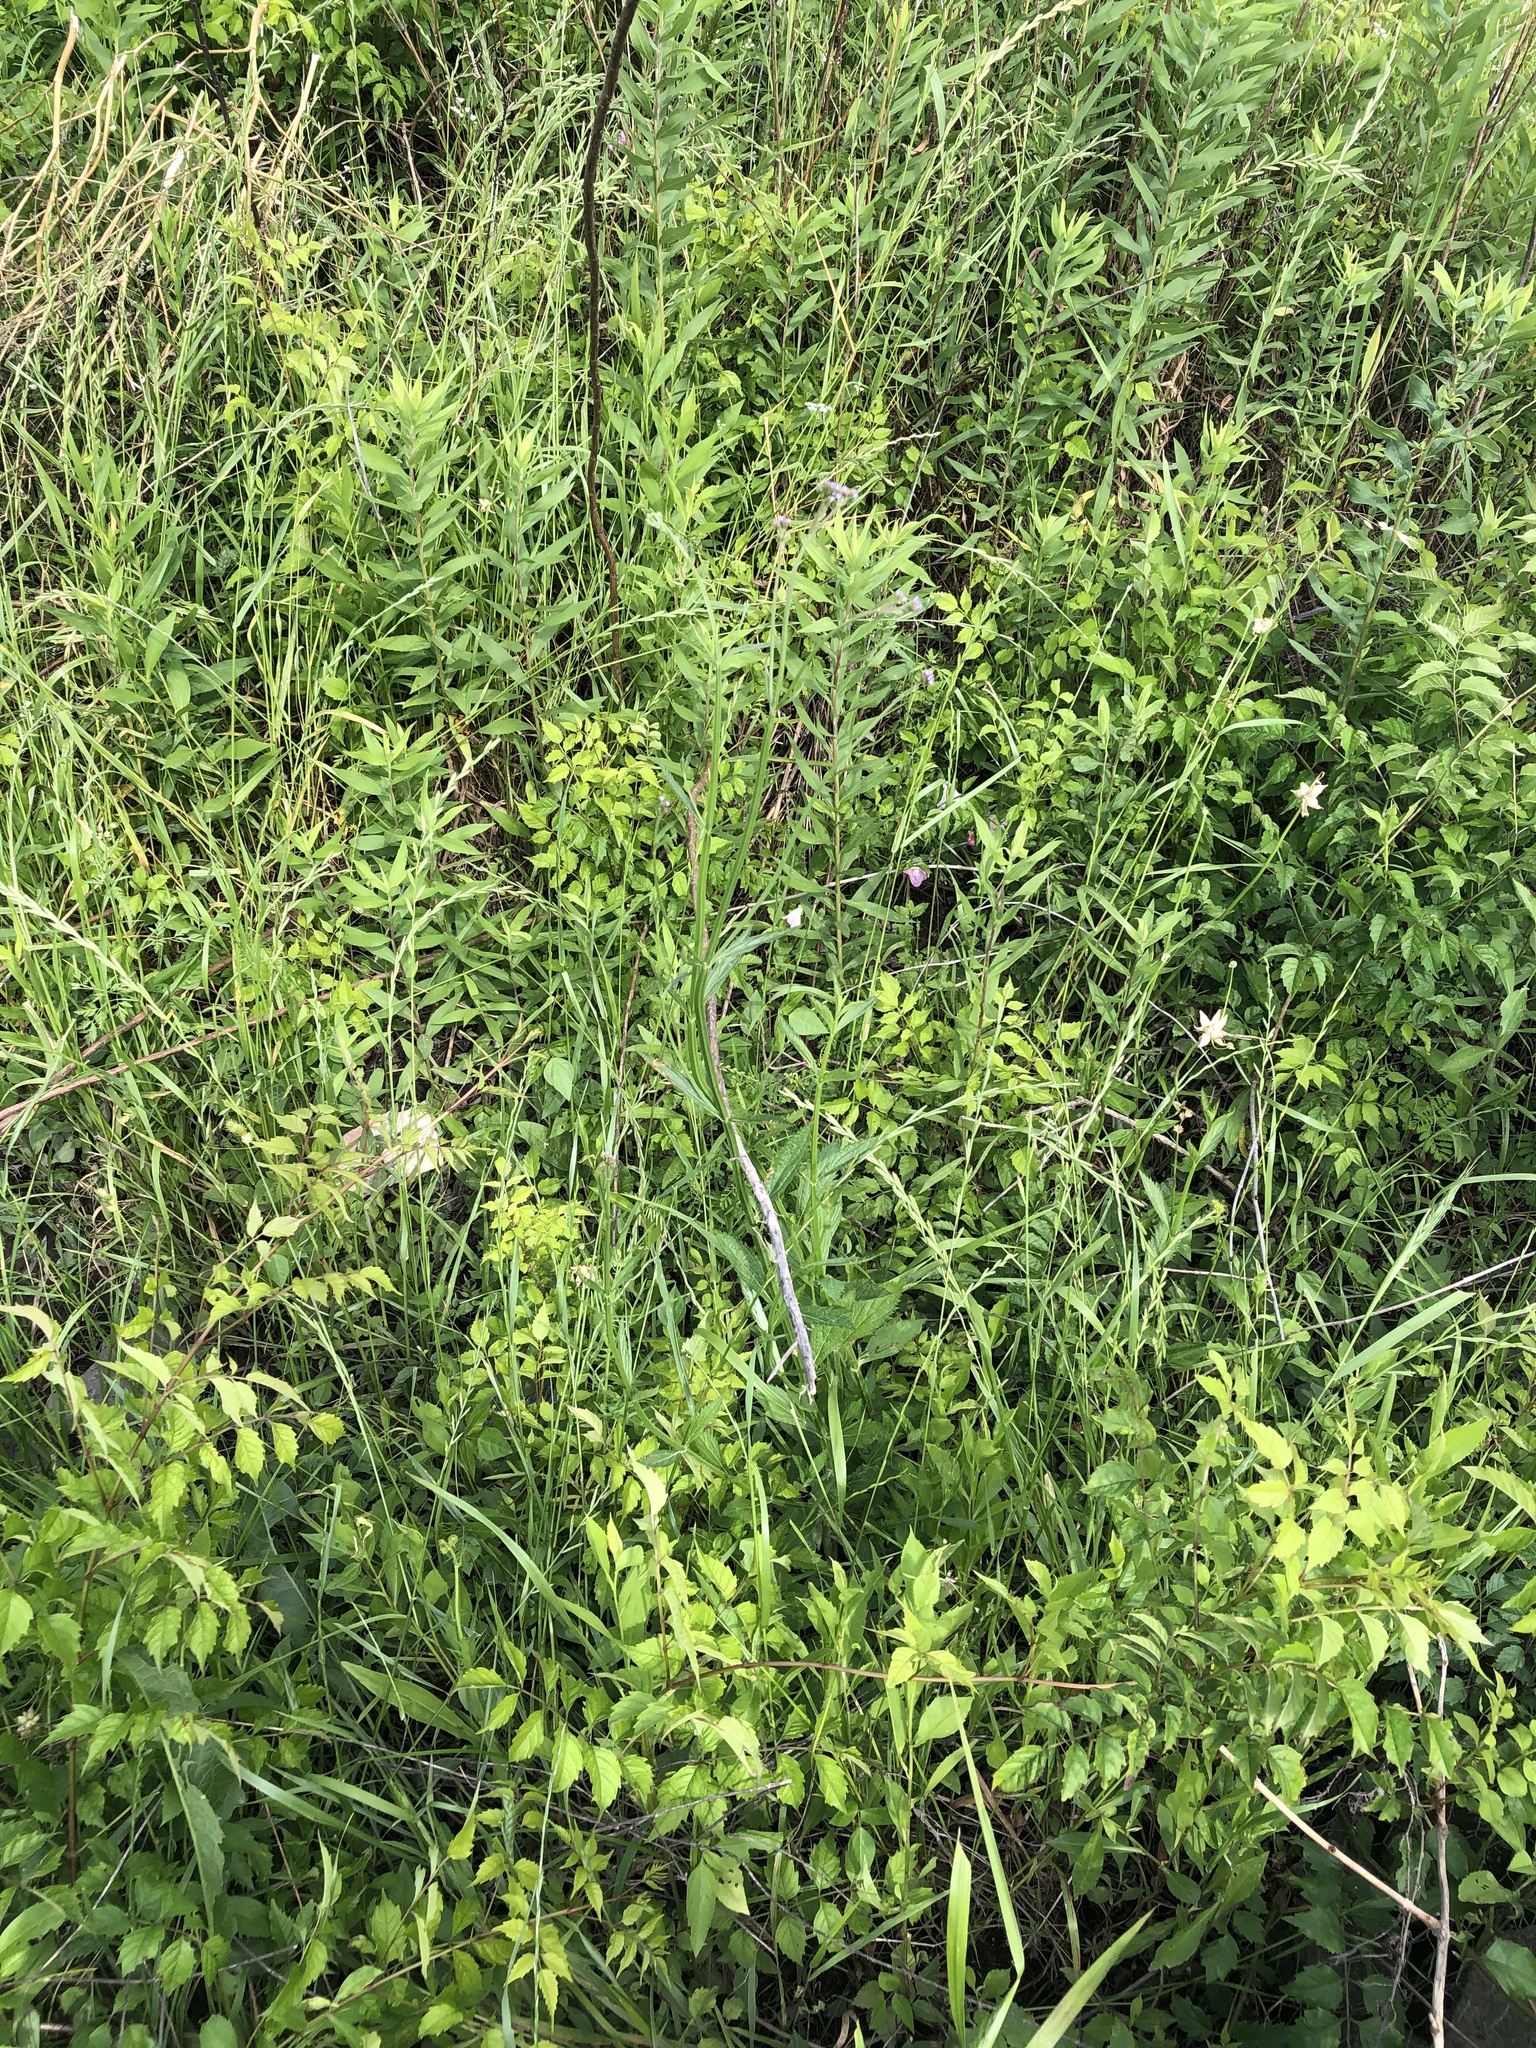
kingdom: Plantae
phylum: Tracheophyta
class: Magnoliopsida
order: Lamiales
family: Verbenaceae
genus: Verbena
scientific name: Verbena brasiliensis
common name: Brazilian vervain
